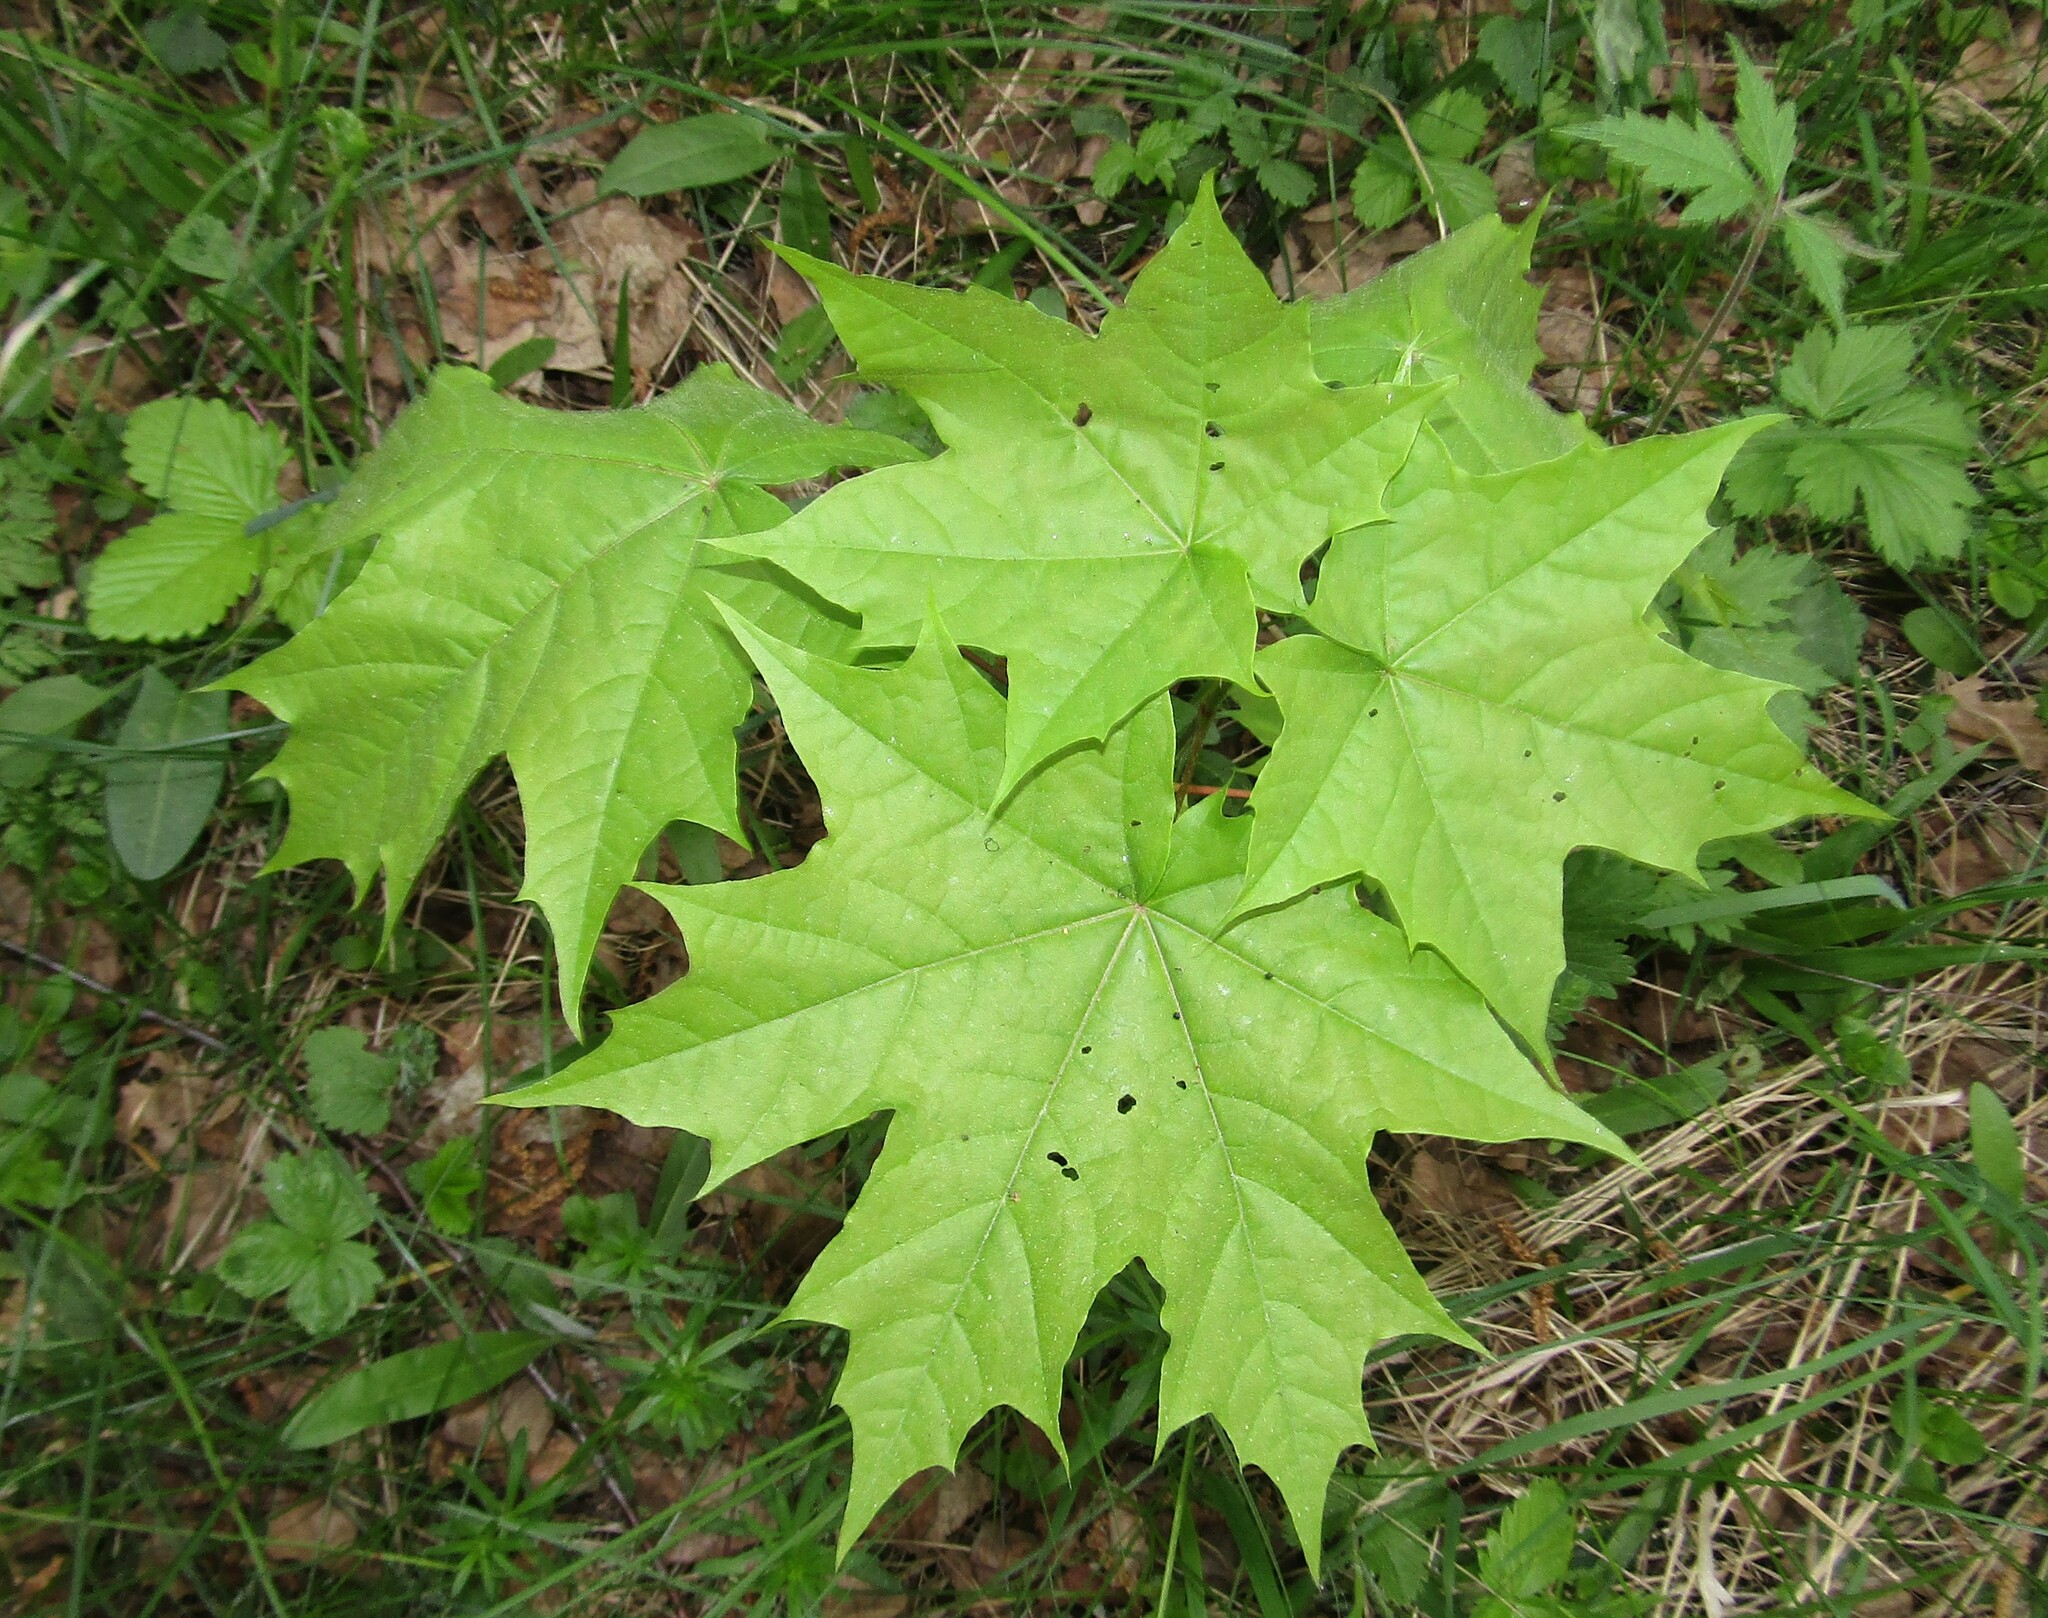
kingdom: Plantae
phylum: Tracheophyta
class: Magnoliopsida
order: Sapindales
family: Sapindaceae
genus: Acer
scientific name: Acer platanoides
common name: Norway maple
